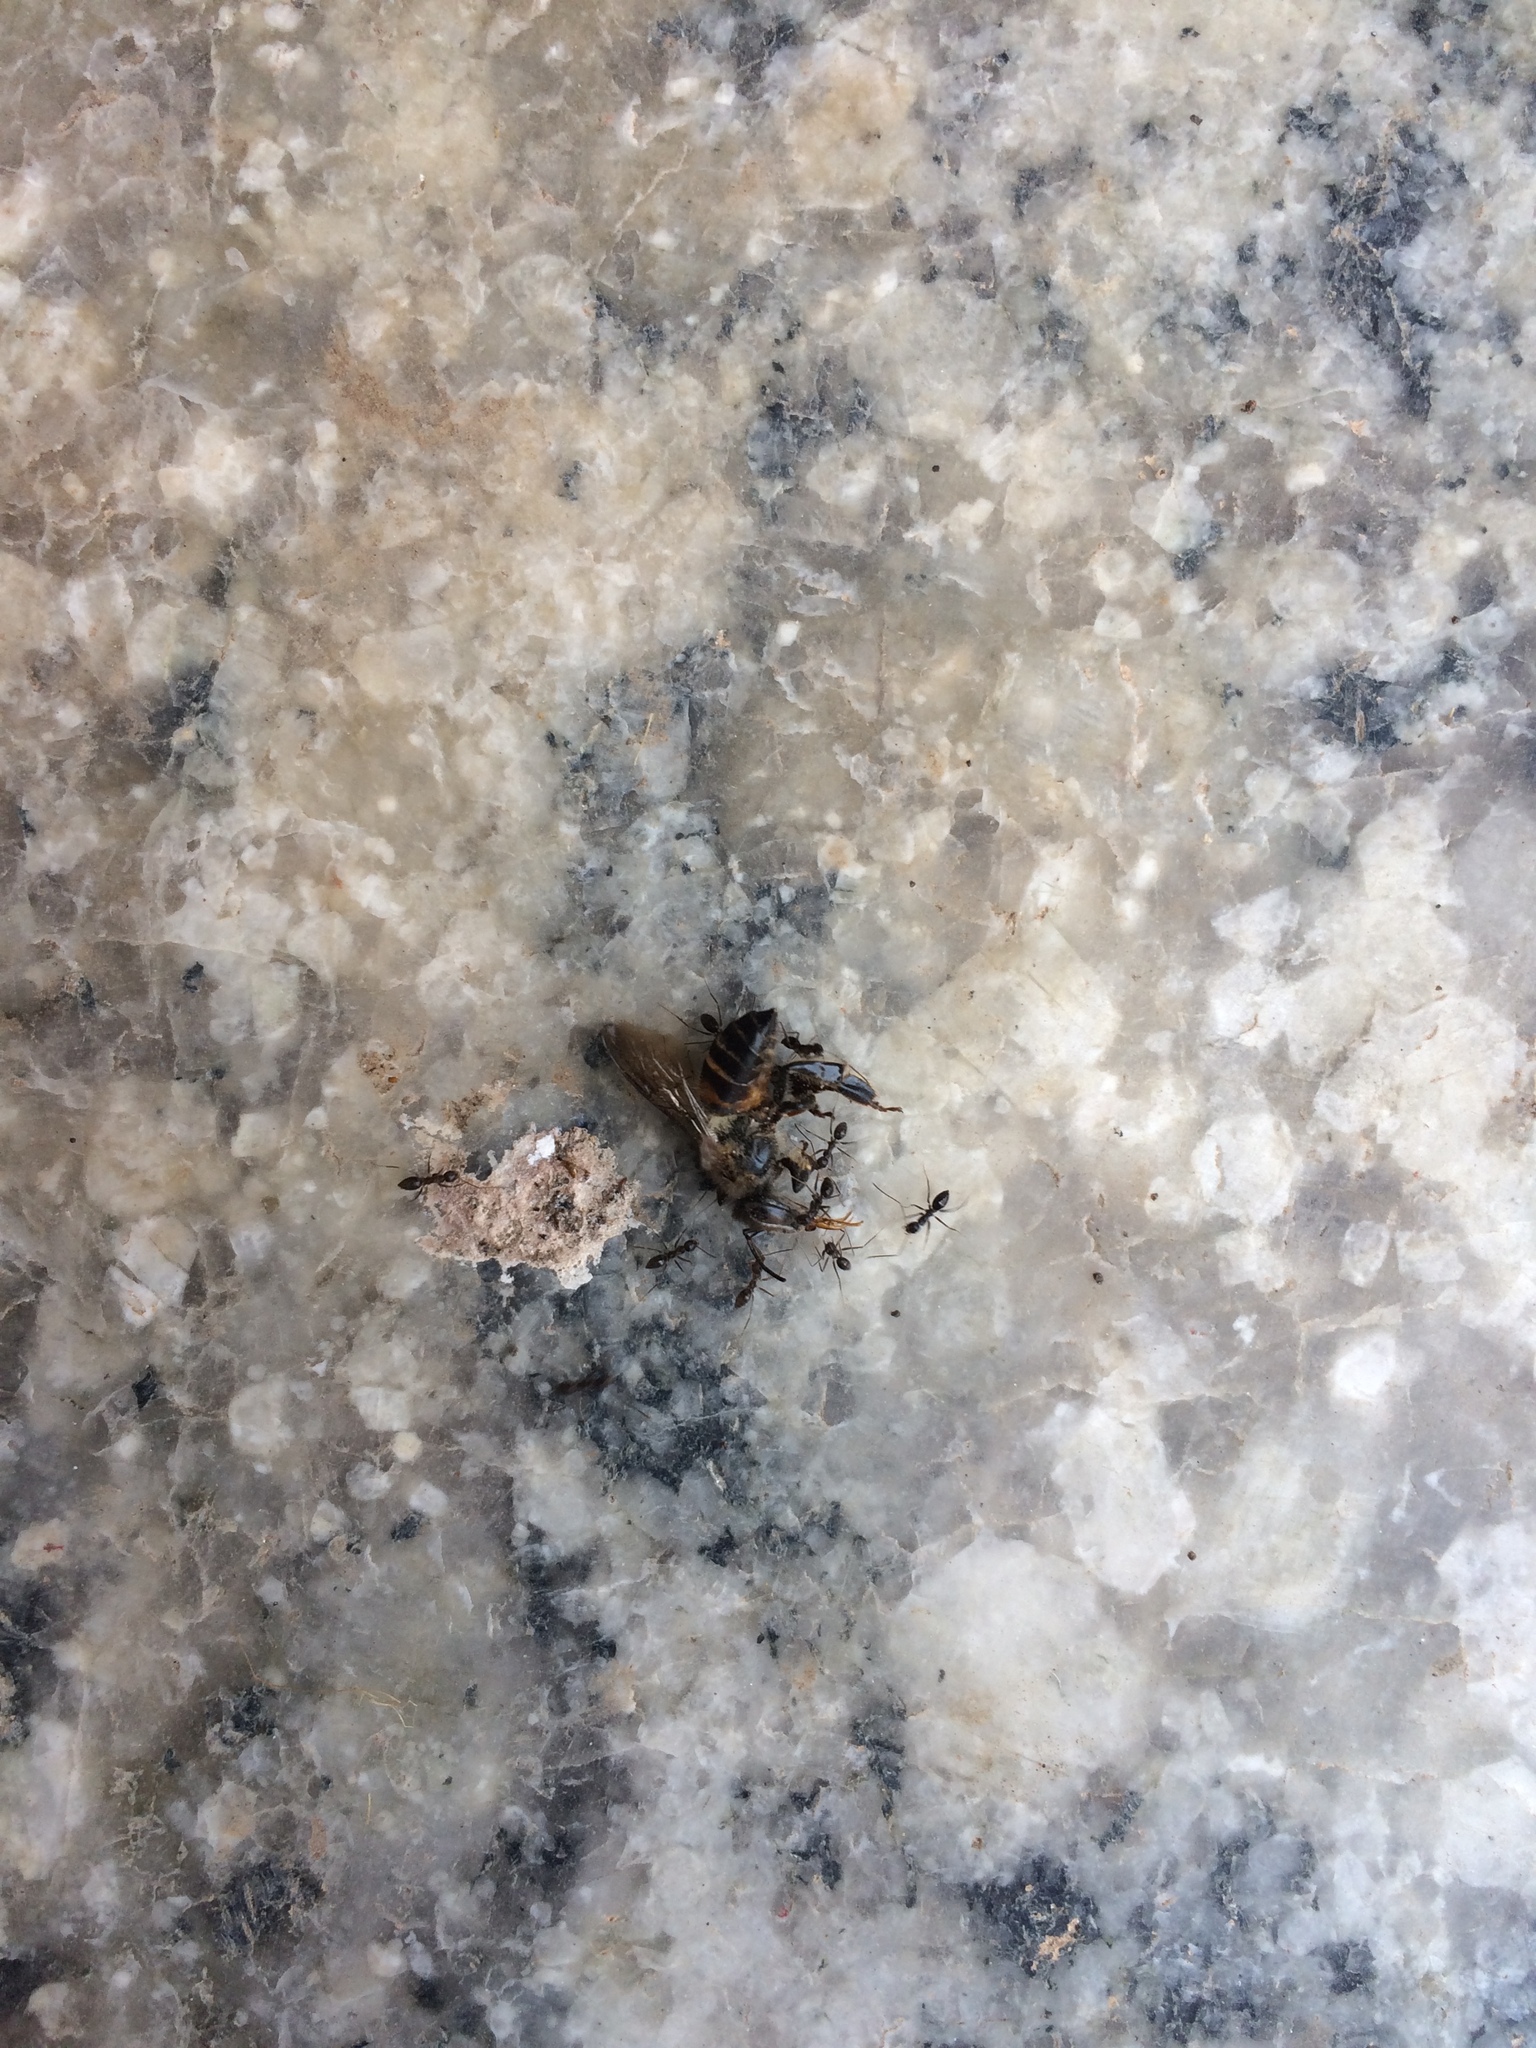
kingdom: Animalia
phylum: Arthropoda
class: Insecta
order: Hymenoptera
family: Formicidae
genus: Paratrechina
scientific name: Paratrechina longicornis
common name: Longhorned crazy ant
